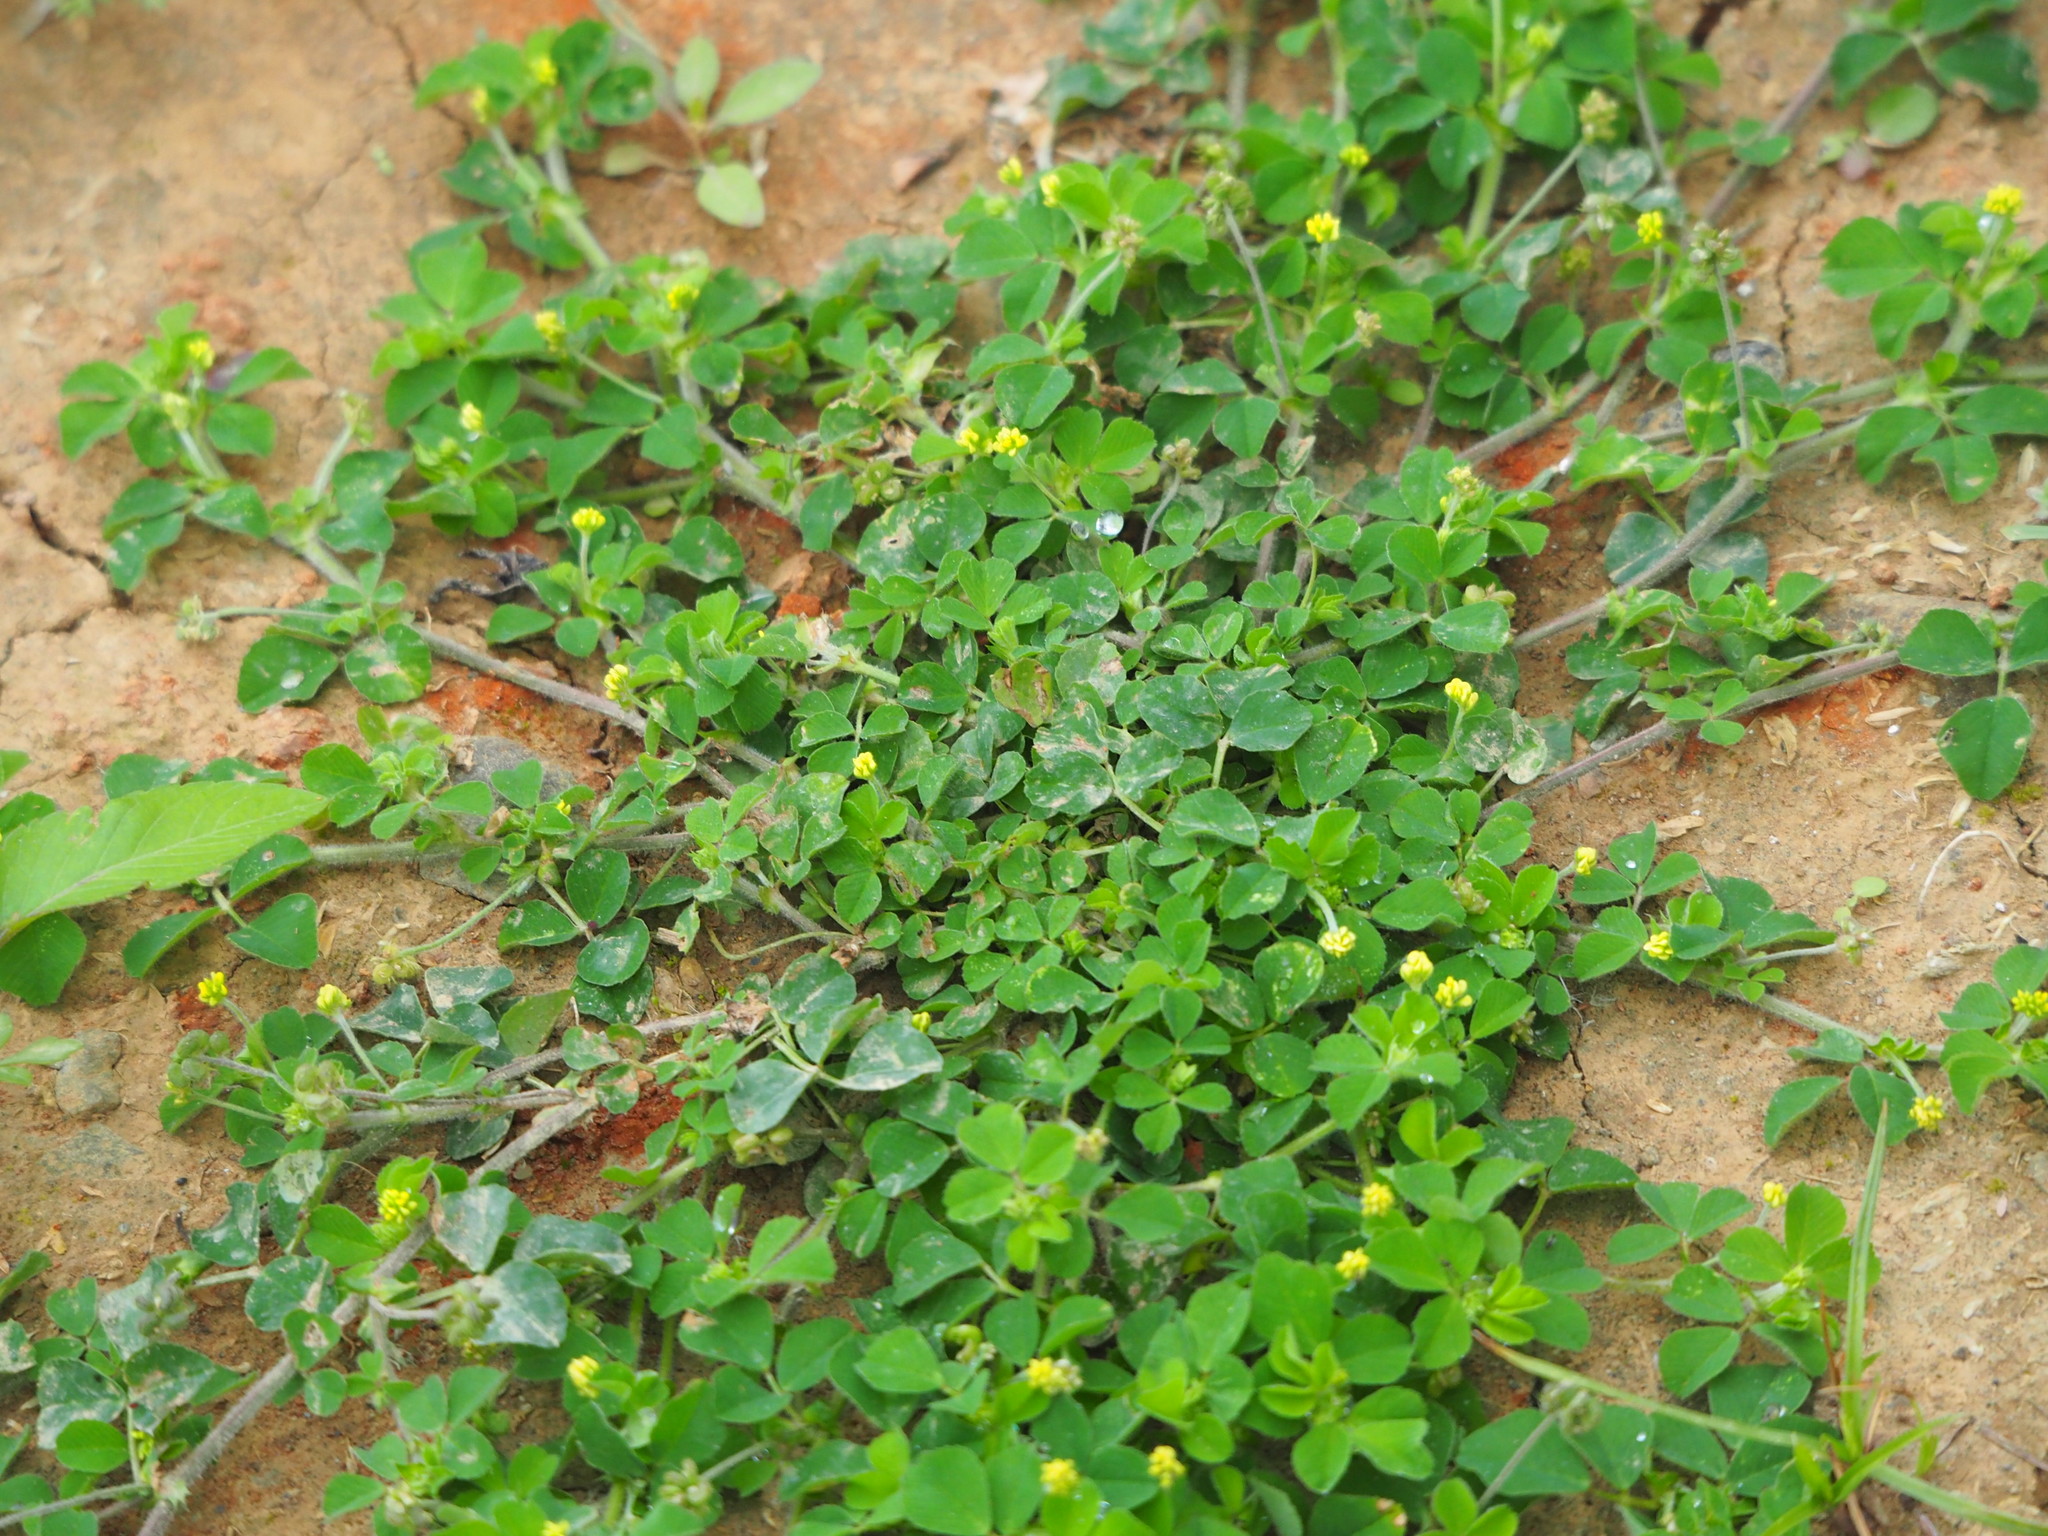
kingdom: Plantae
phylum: Tracheophyta
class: Magnoliopsida
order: Fabales
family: Fabaceae
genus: Medicago
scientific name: Medicago lupulina
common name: Black medick
